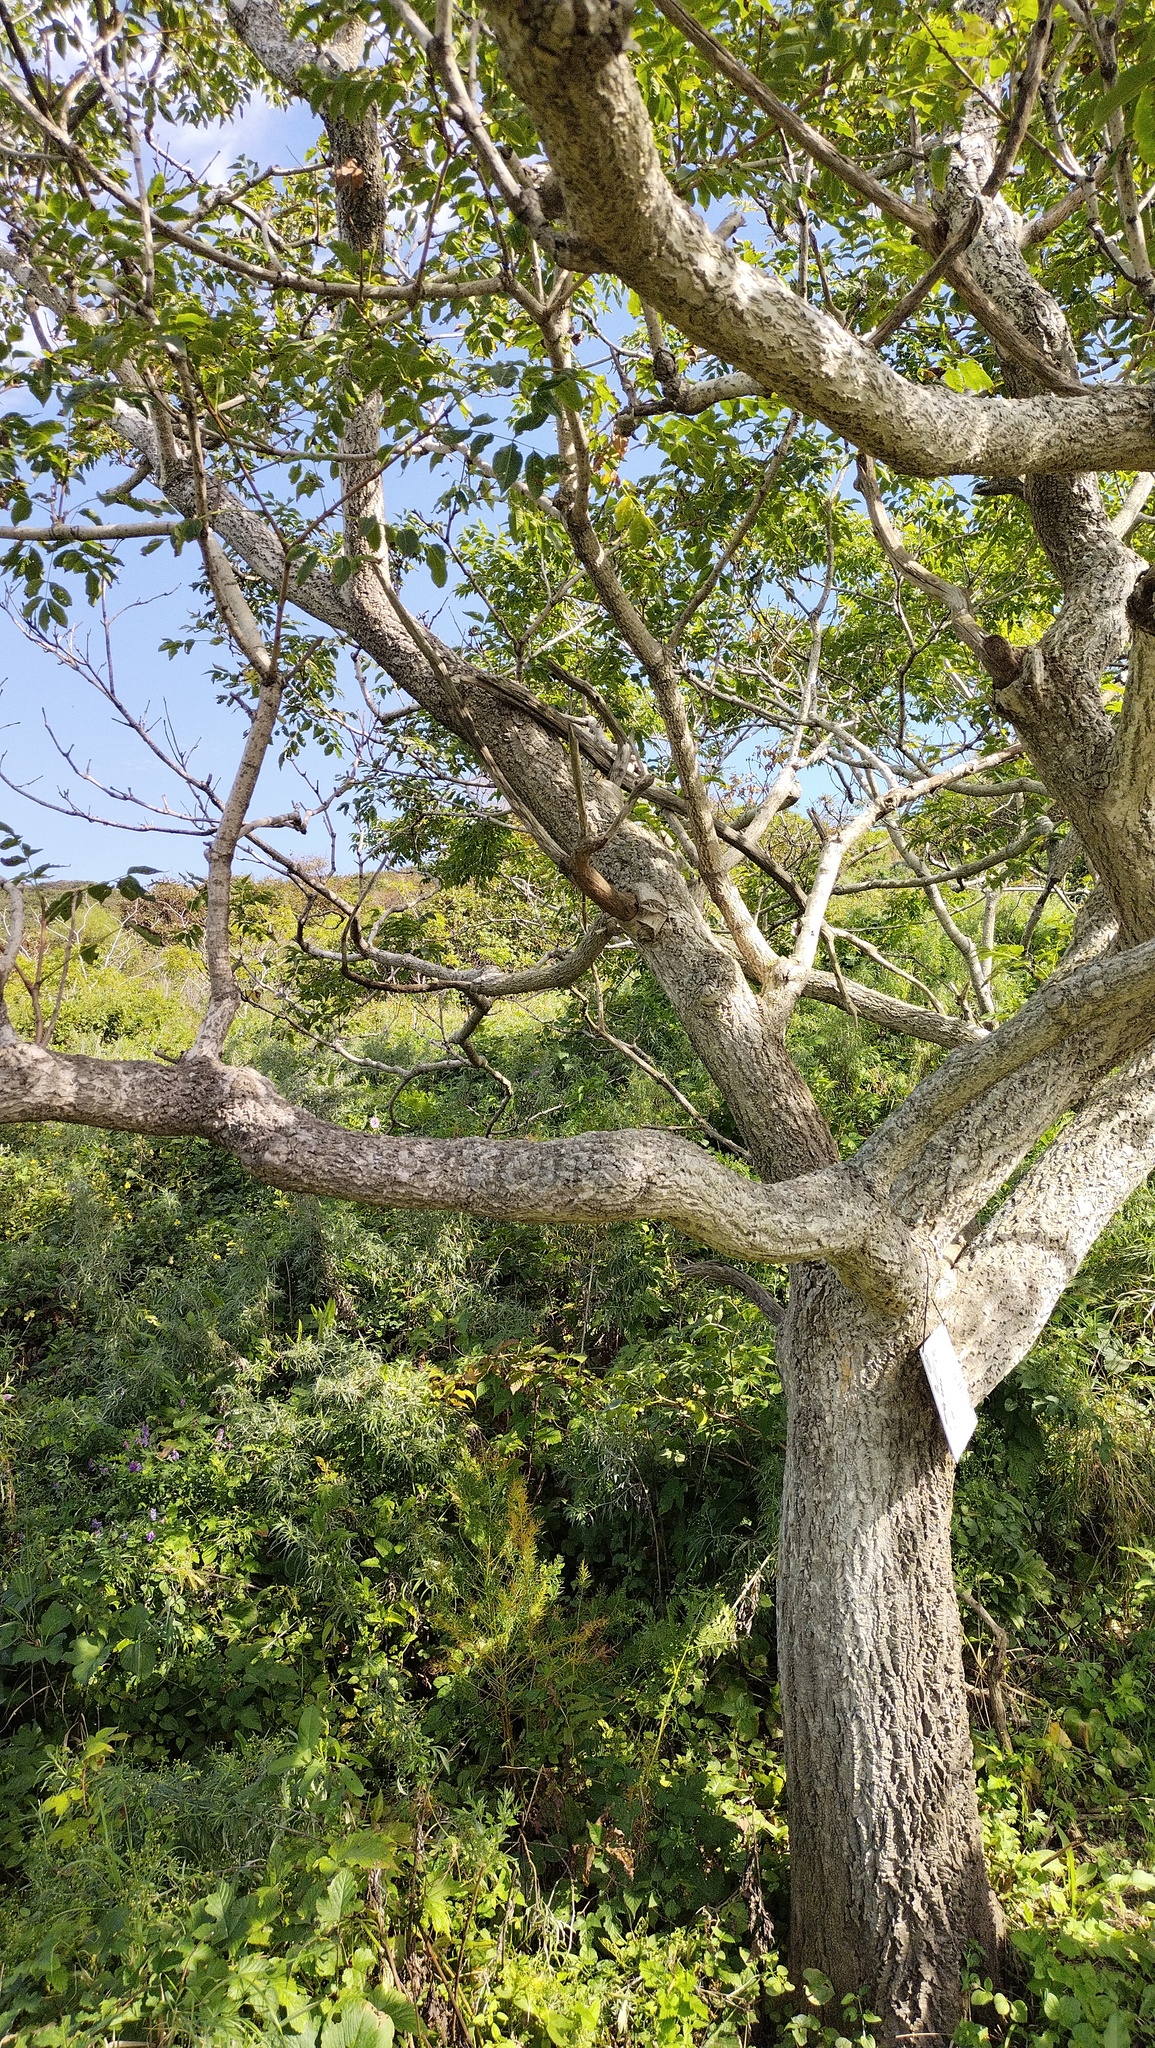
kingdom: Plantae
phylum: Tracheophyta
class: Magnoliopsida
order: Sapindales
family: Rutaceae
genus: Phellodendron
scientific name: Phellodendron amurense
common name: Amur corktree
